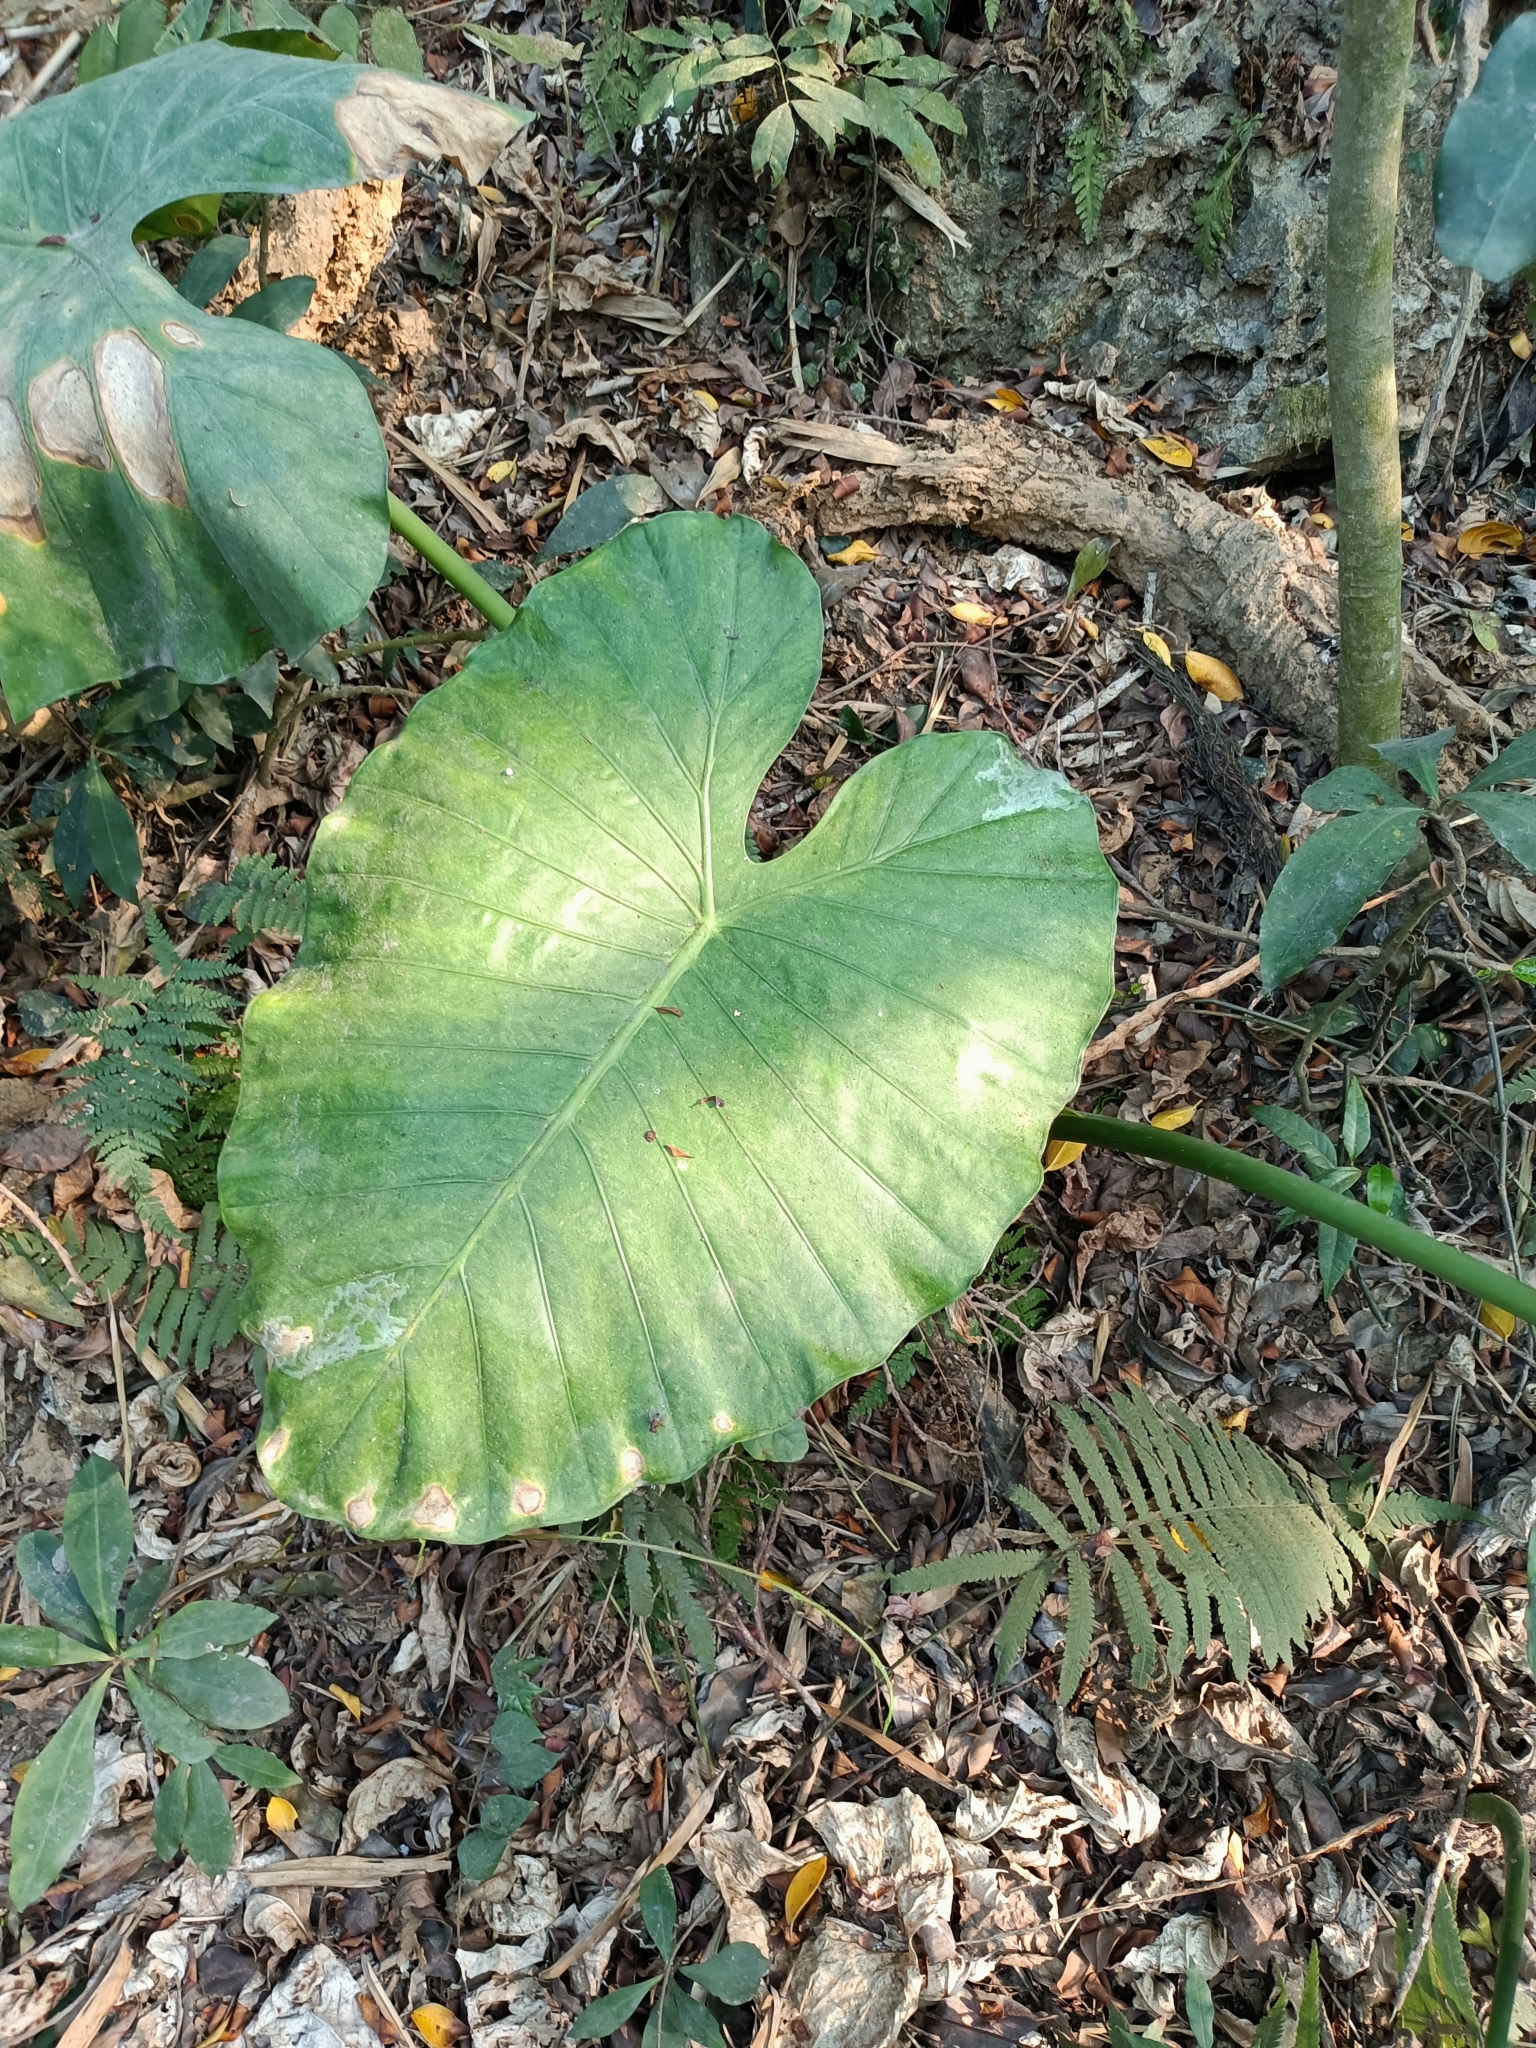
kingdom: Plantae
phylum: Tracheophyta
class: Liliopsida
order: Alismatales
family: Araceae
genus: Alocasia
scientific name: Alocasia odora
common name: Asian taro
